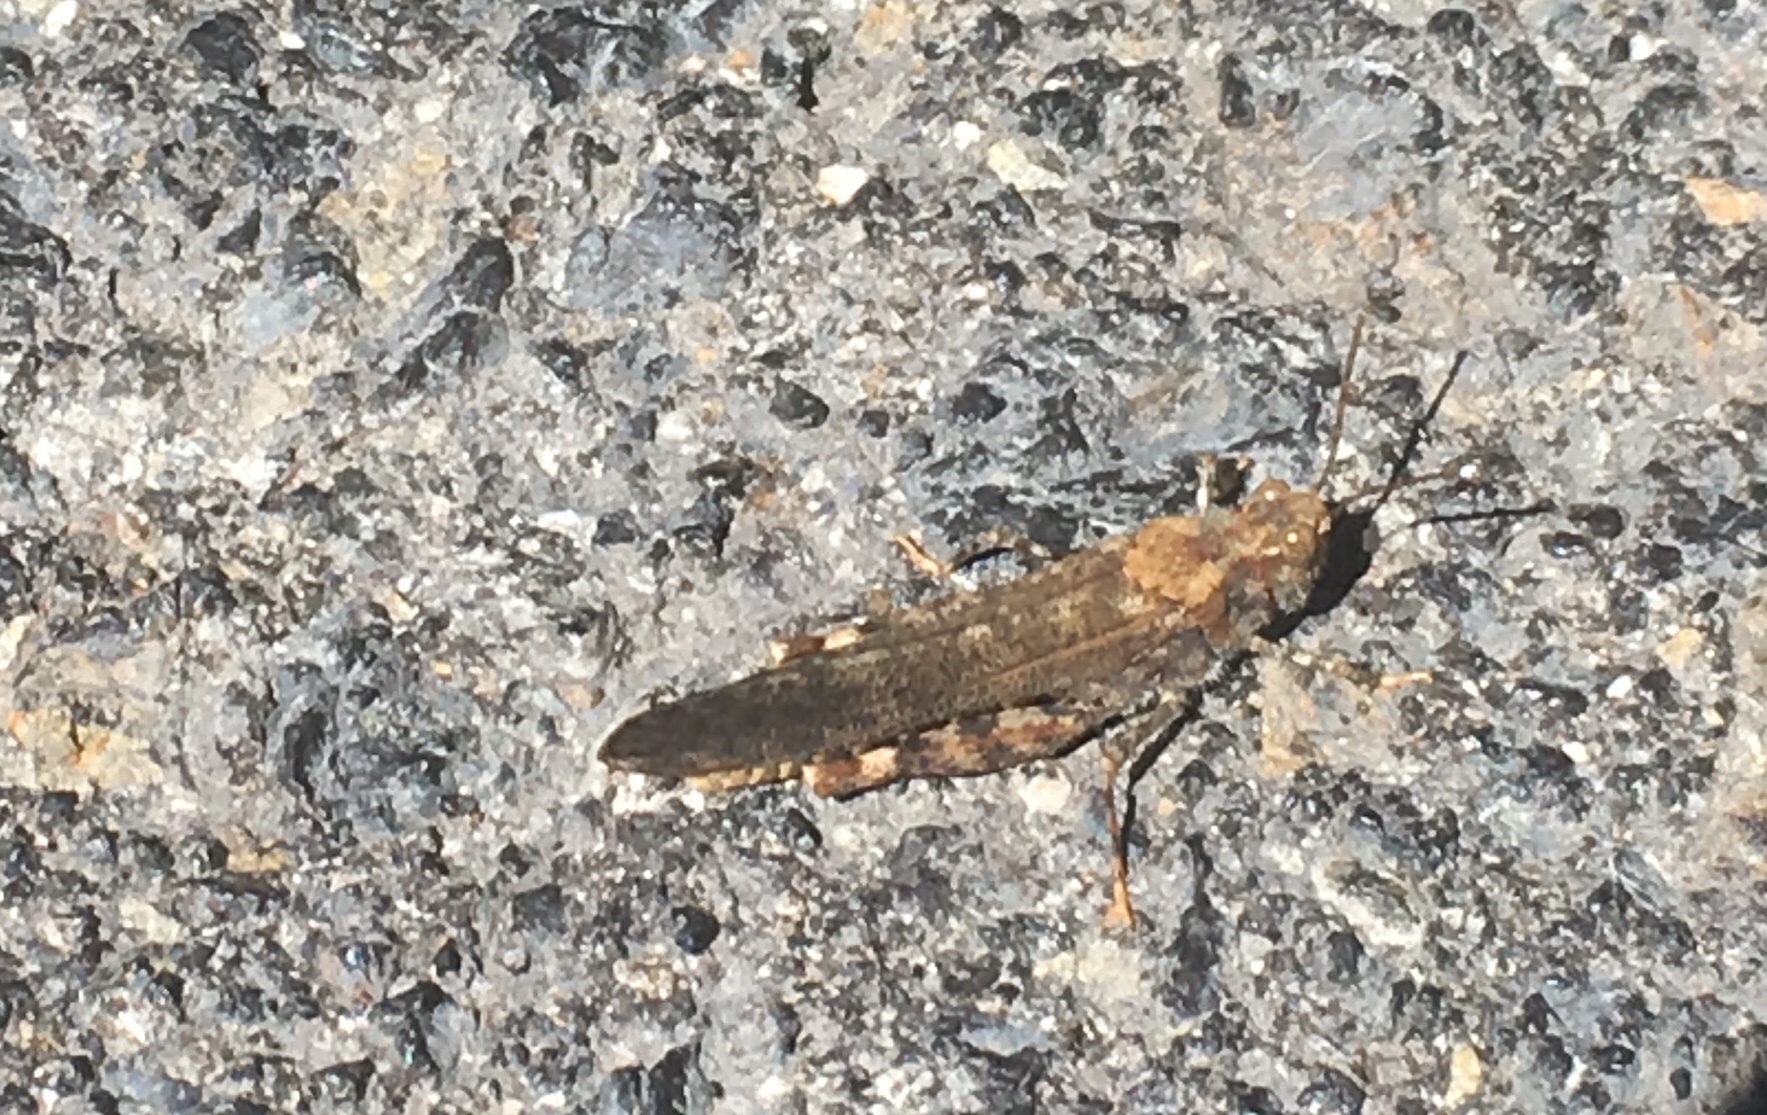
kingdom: Animalia
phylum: Arthropoda
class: Insecta
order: Orthoptera
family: Acrididae
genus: Trimerotropis
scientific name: Trimerotropis verruculata
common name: Crackling forest grasshopper
